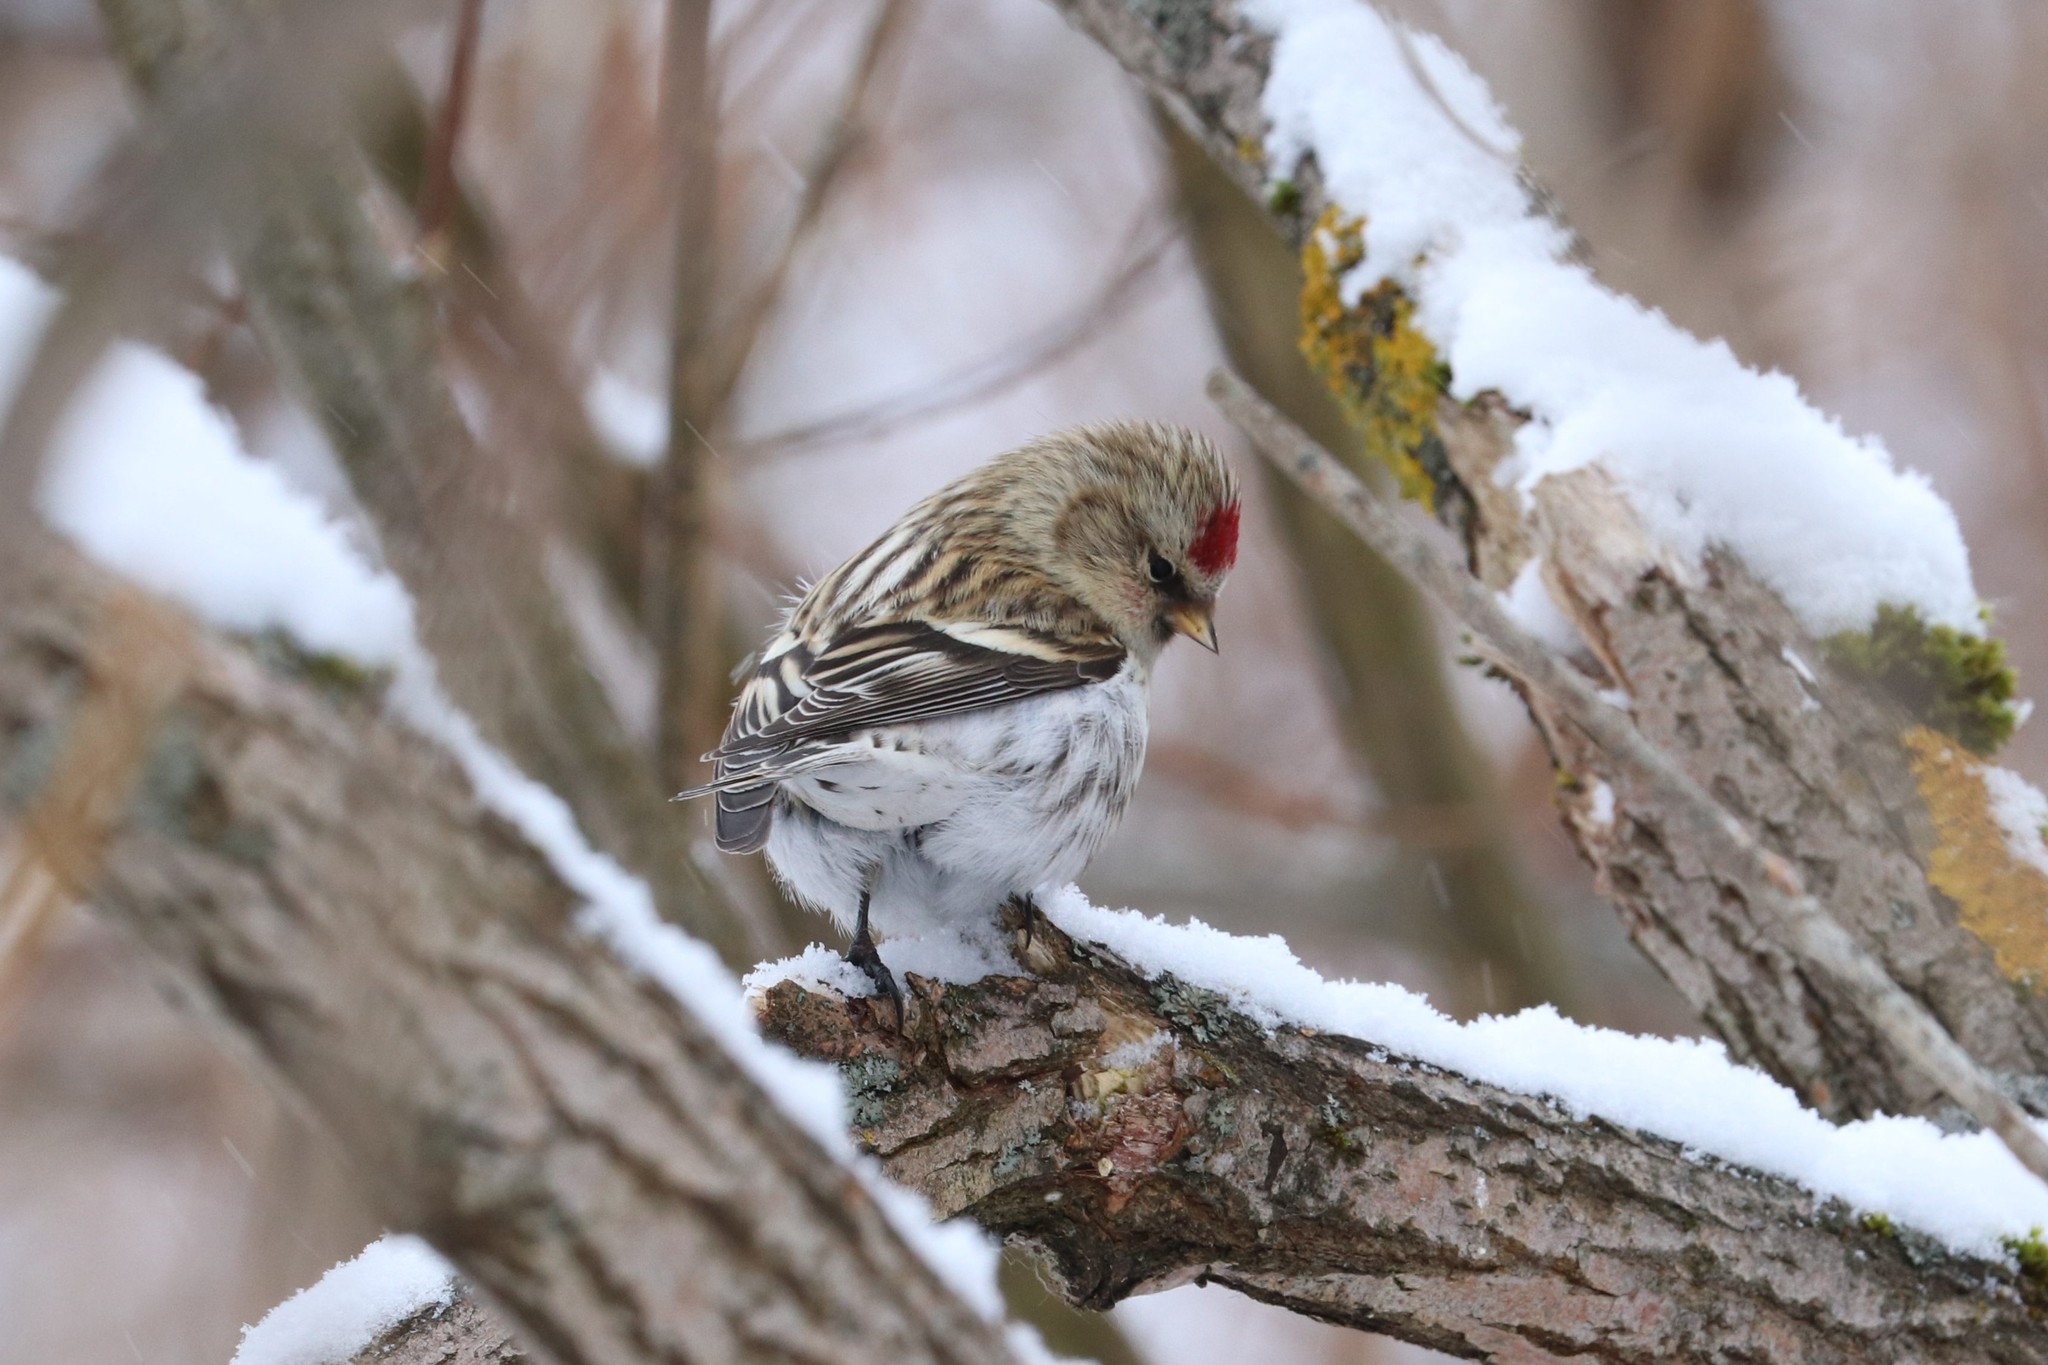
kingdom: Animalia
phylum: Chordata
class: Aves
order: Passeriformes
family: Fringillidae
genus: Acanthis
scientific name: Acanthis flammea
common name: Common redpoll
